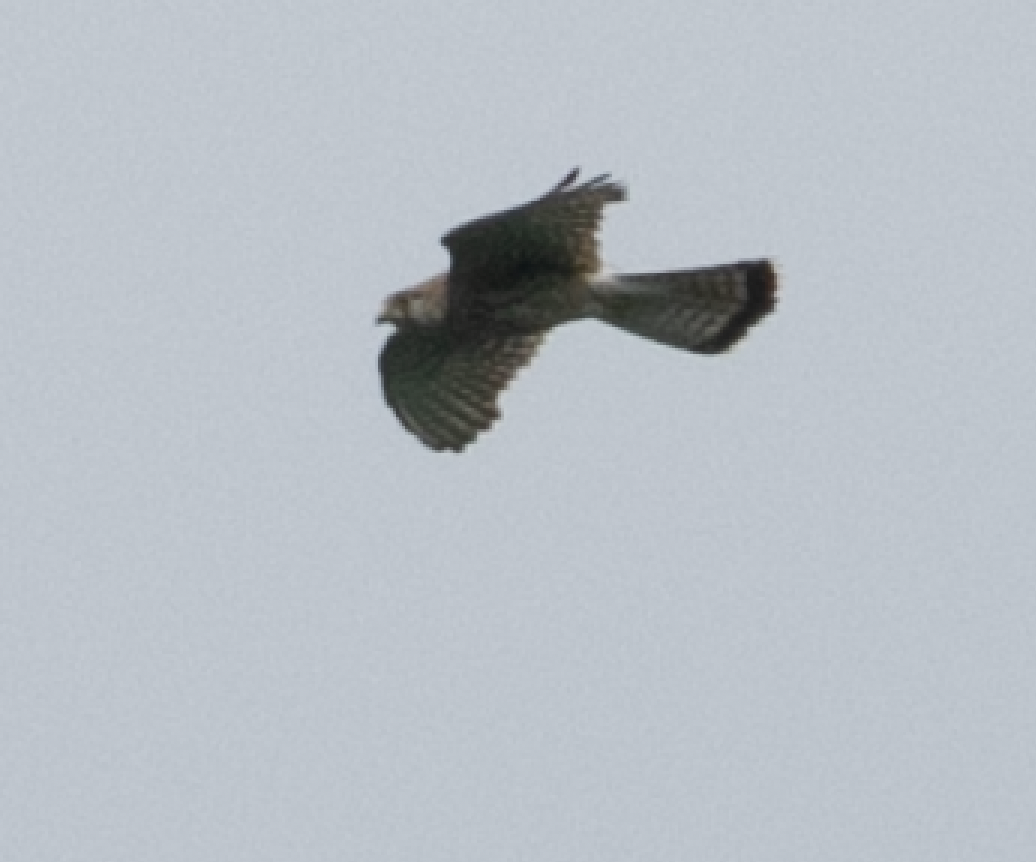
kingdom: Animalia
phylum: Chordata
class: Aves
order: Falconiformes
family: Falconidae
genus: Falco
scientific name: Falco tinnunculus
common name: Common kestrel
